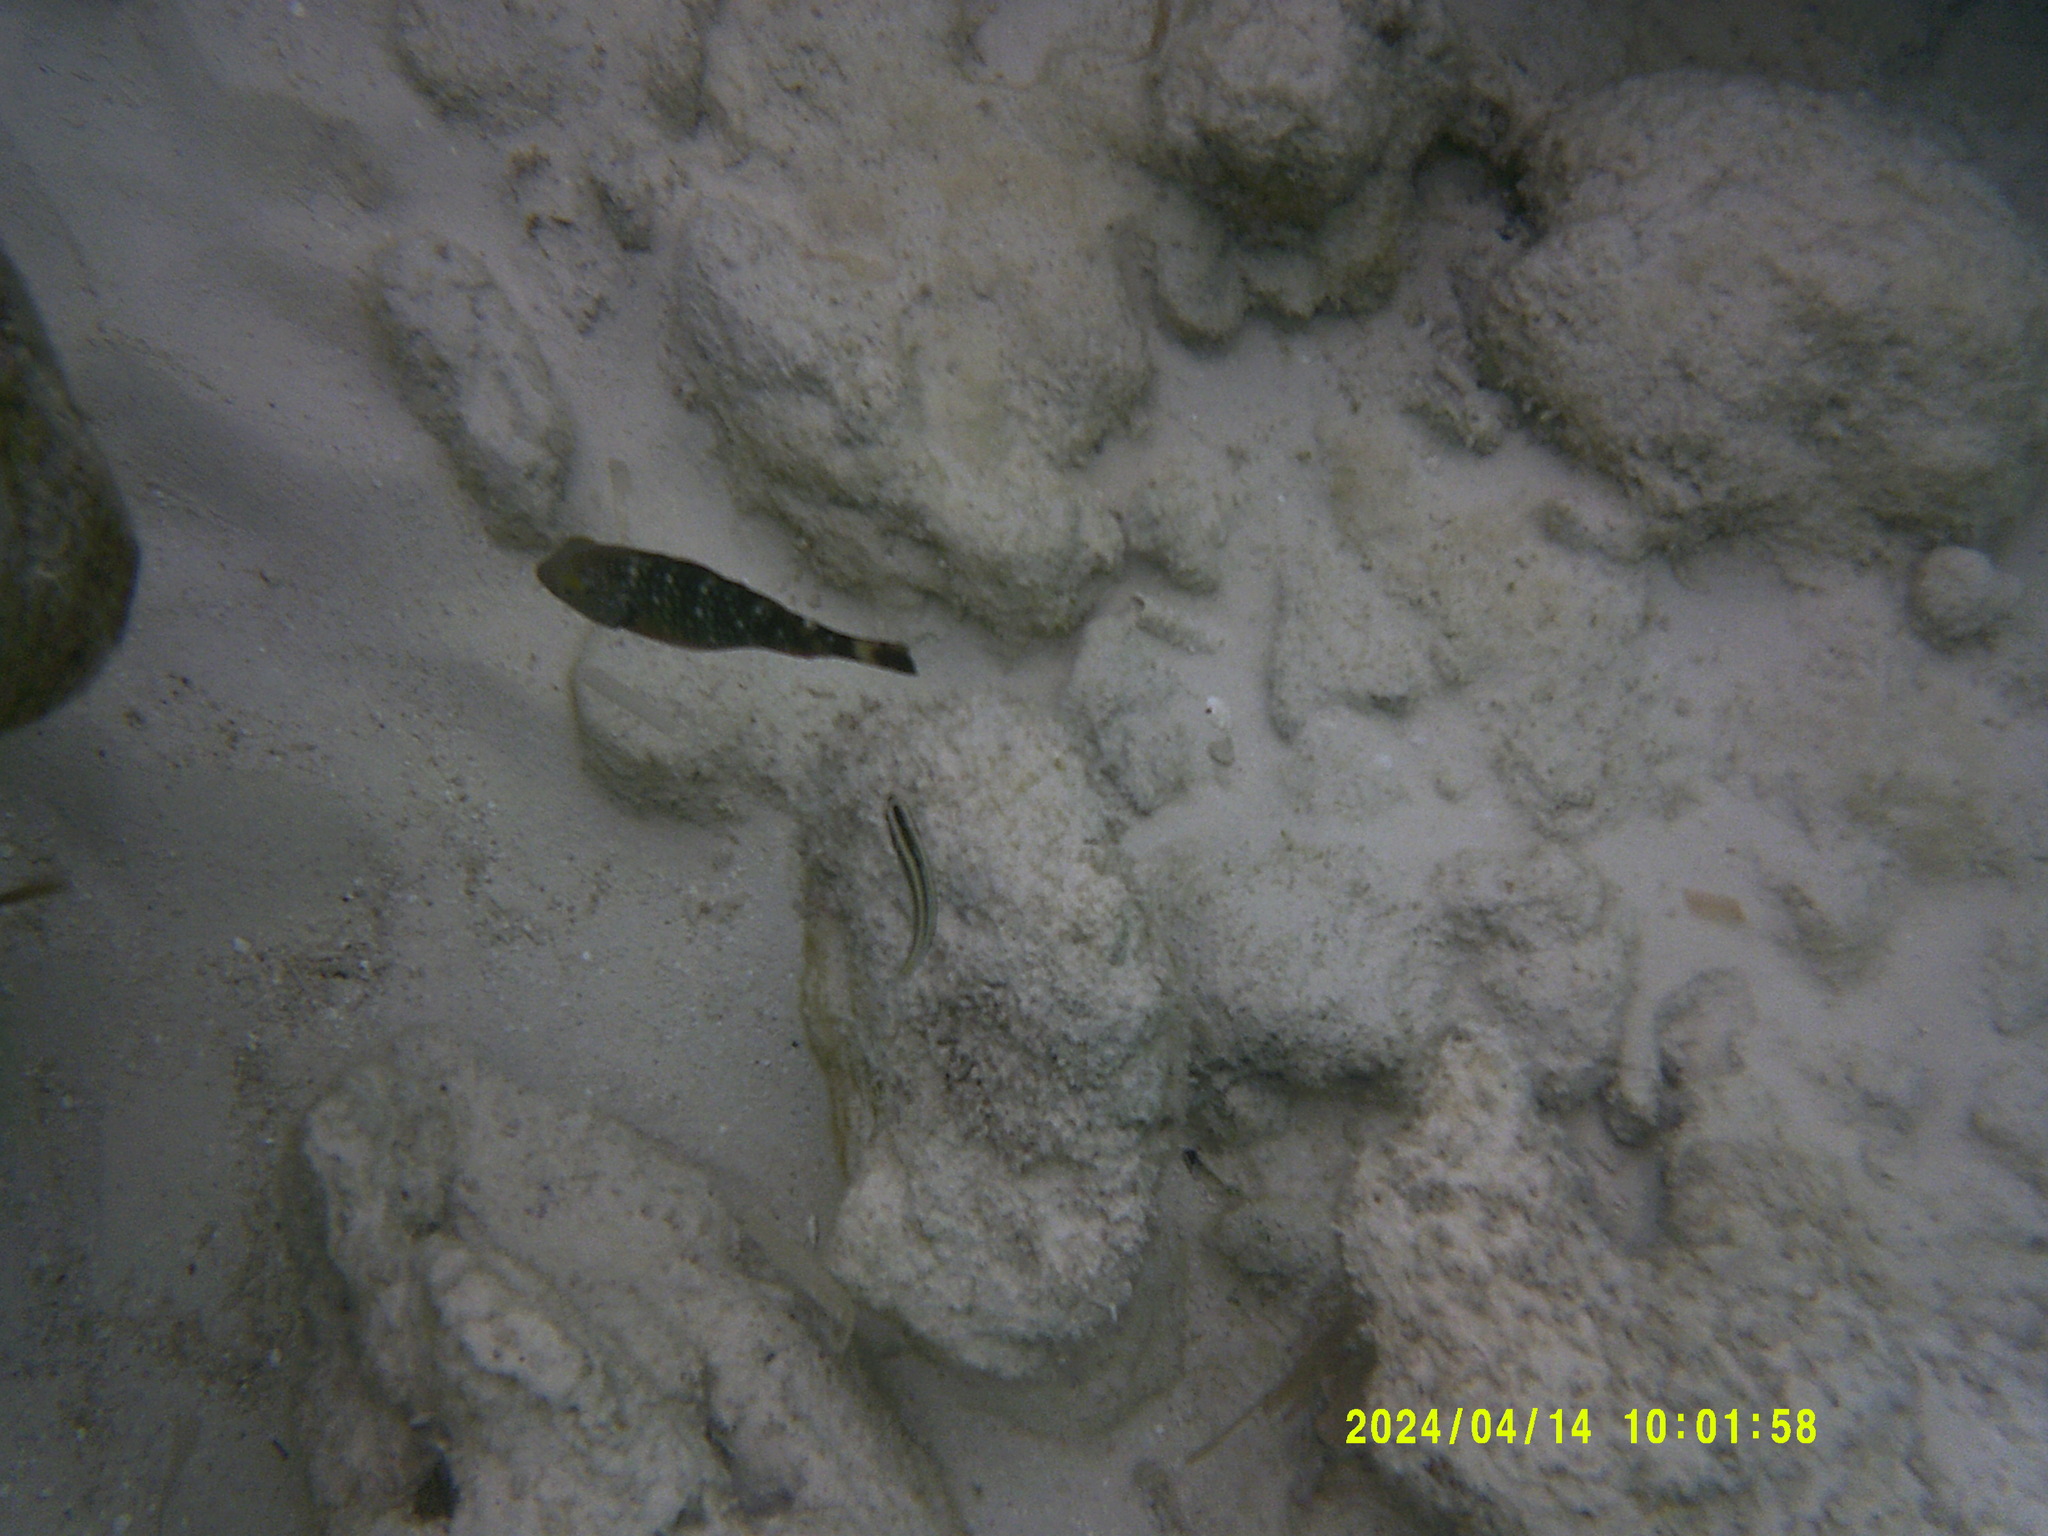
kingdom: Animalia
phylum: Chordata
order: Perciformes
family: Scaridae
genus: Sparisoma
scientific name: Sparisoma viride
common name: Stoplight parrotfish
